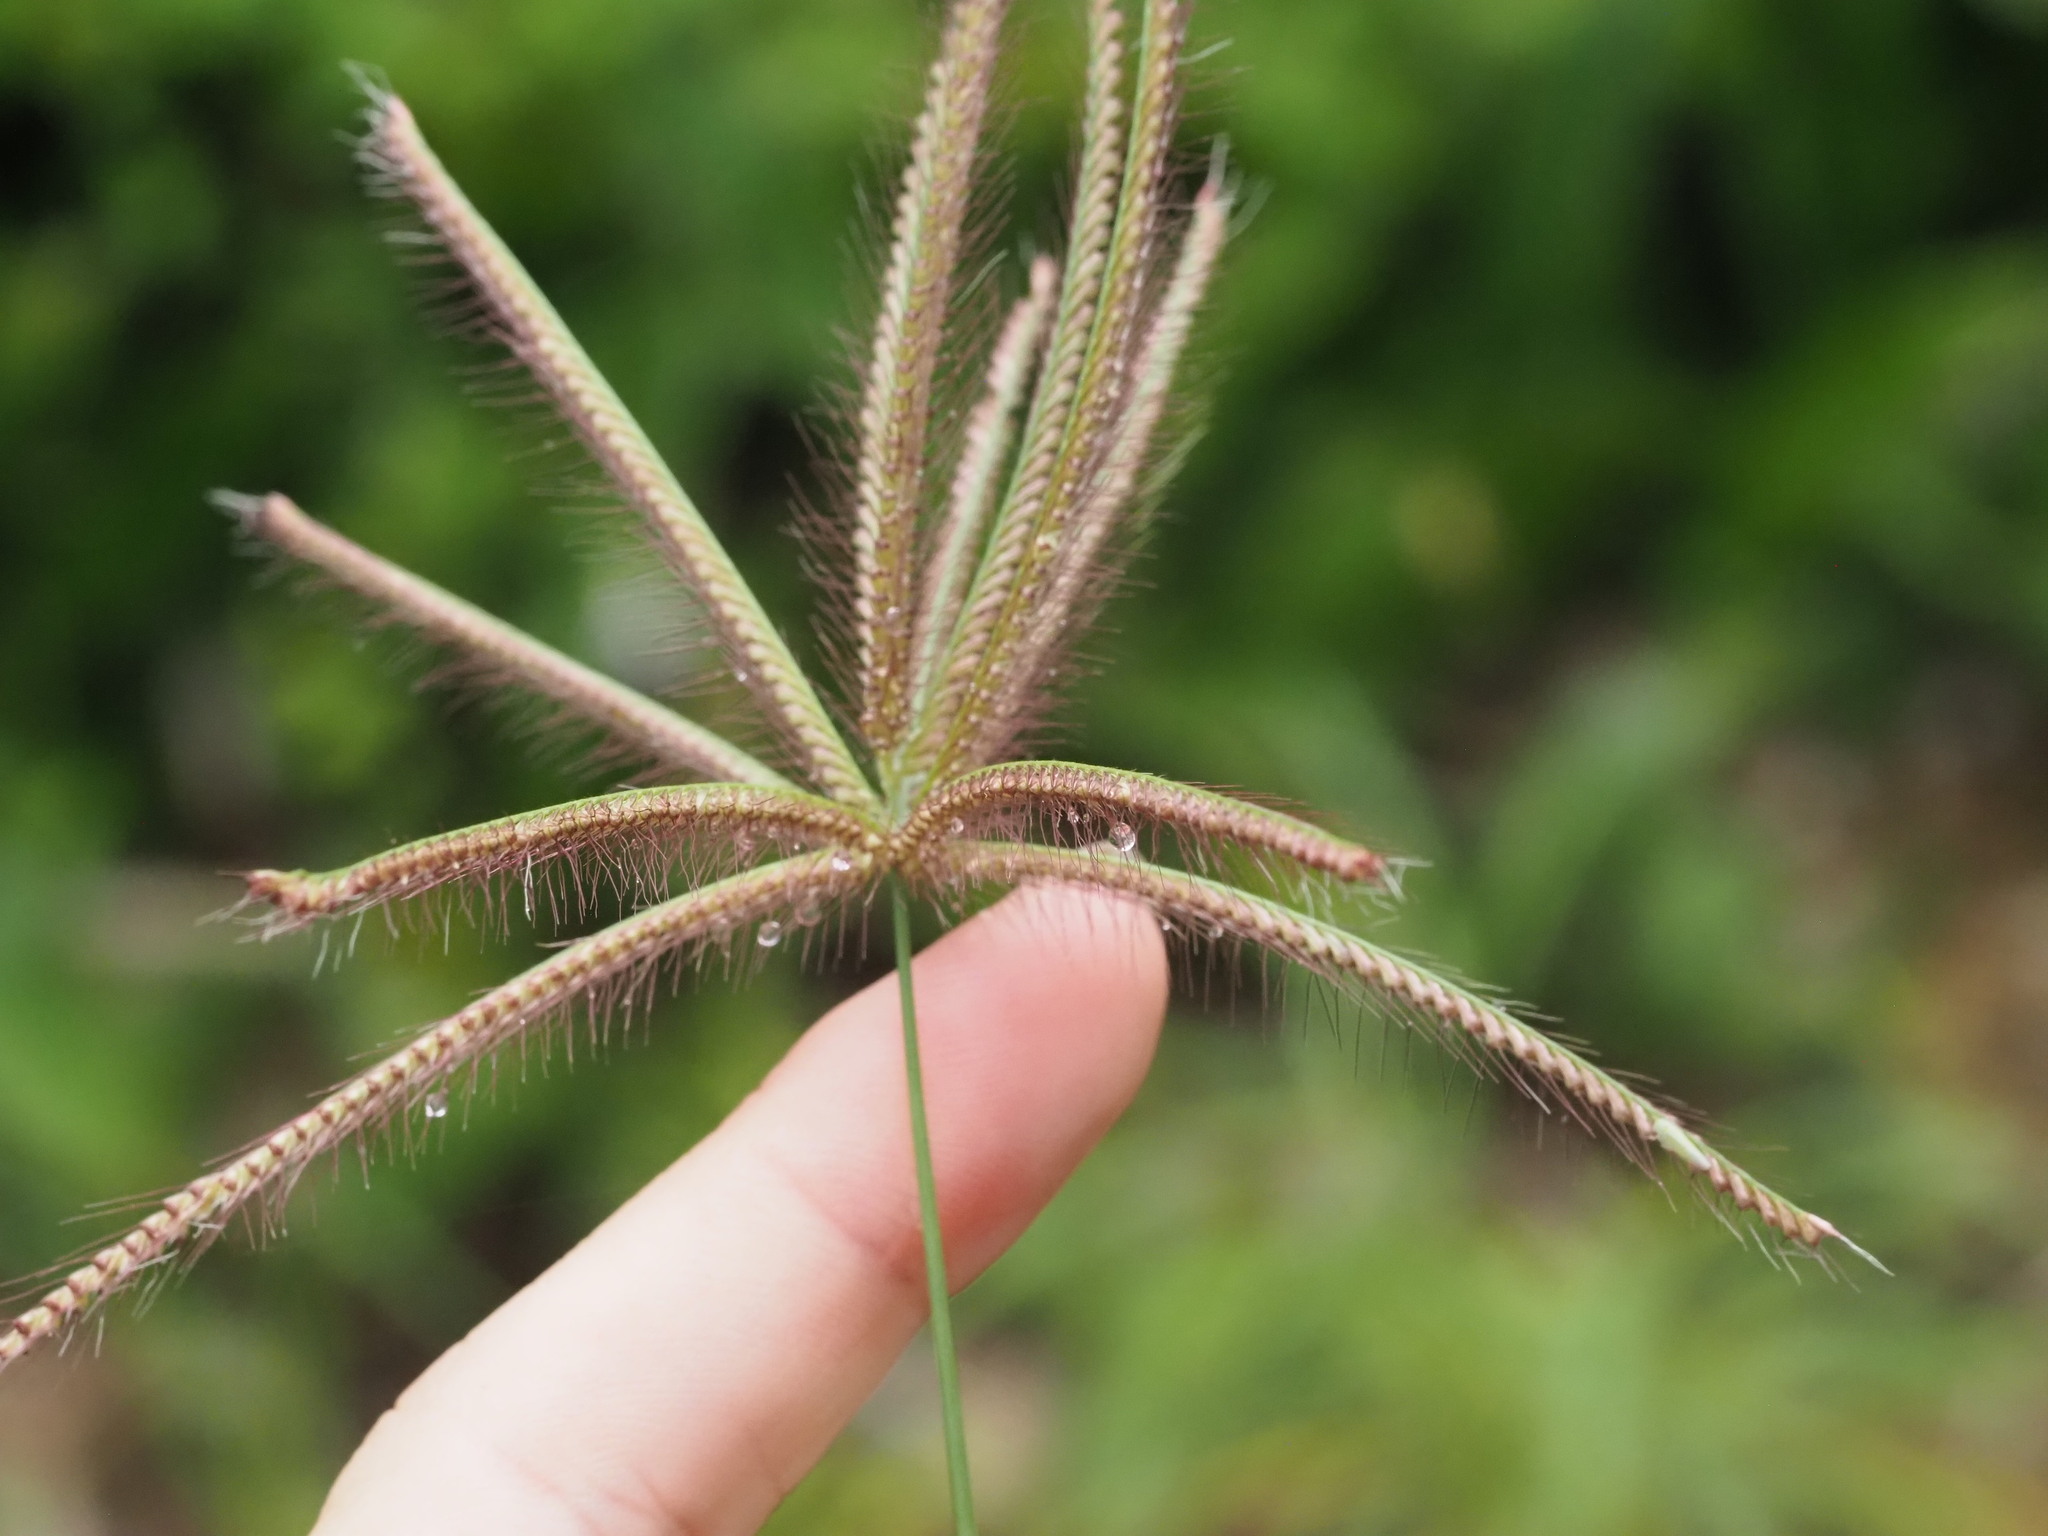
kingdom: Plantae
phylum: Tracheophyta
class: Liliopsida
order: Poales
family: Poaceae
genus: Chloris
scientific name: Chloris barbata
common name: Swollen fingergrass
